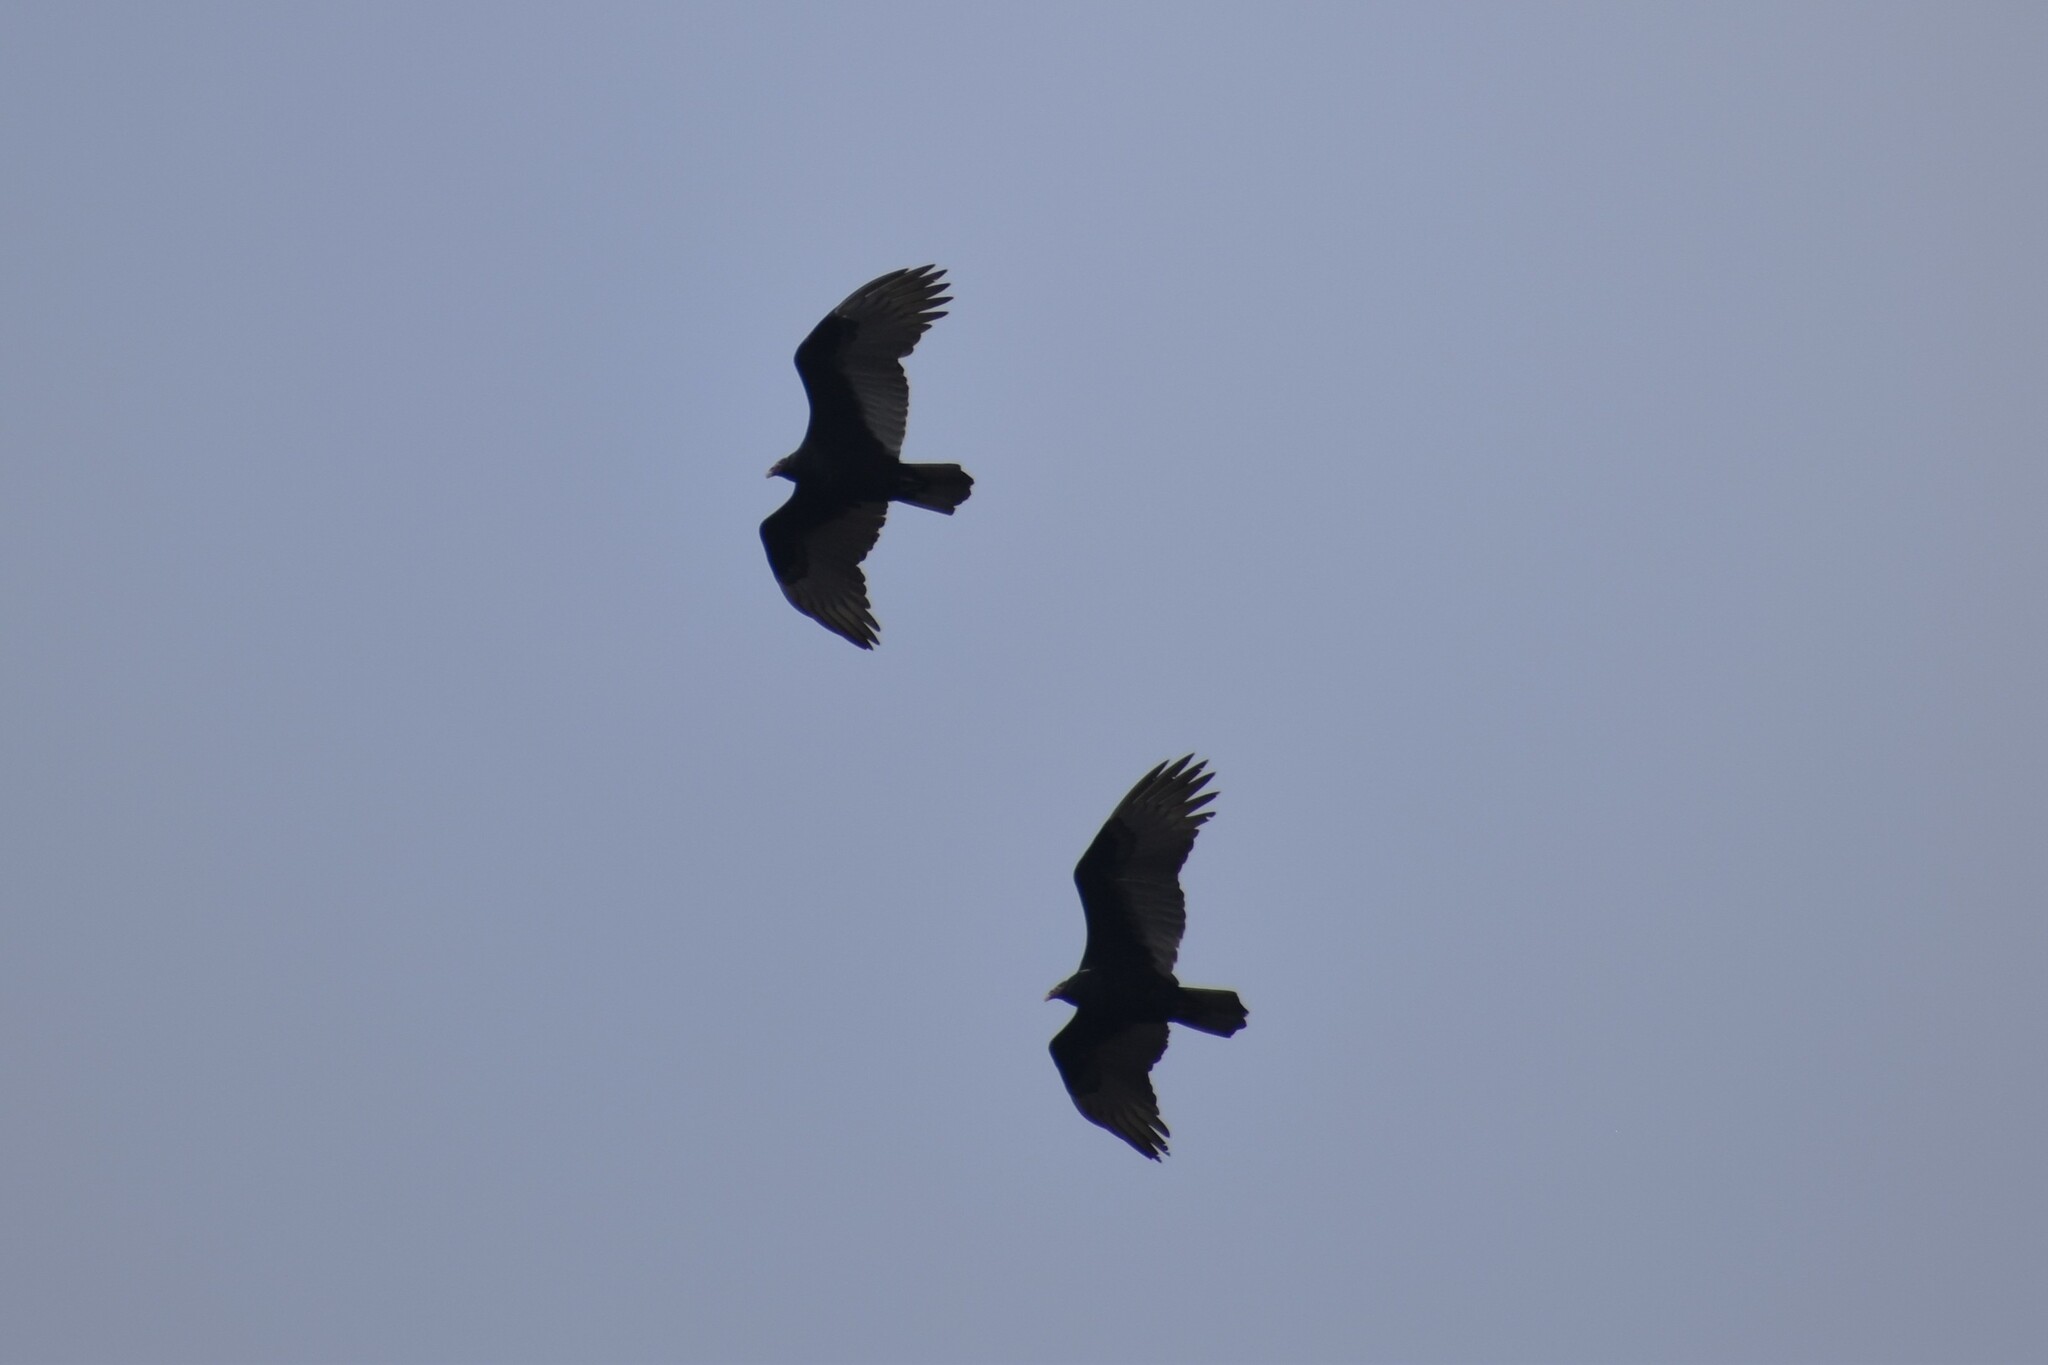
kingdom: Animalia
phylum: Chordata
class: Aves
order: Accipitriformes
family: Cathartidae
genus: Cathartes
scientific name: Cathartes aura
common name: Turkey vulture
